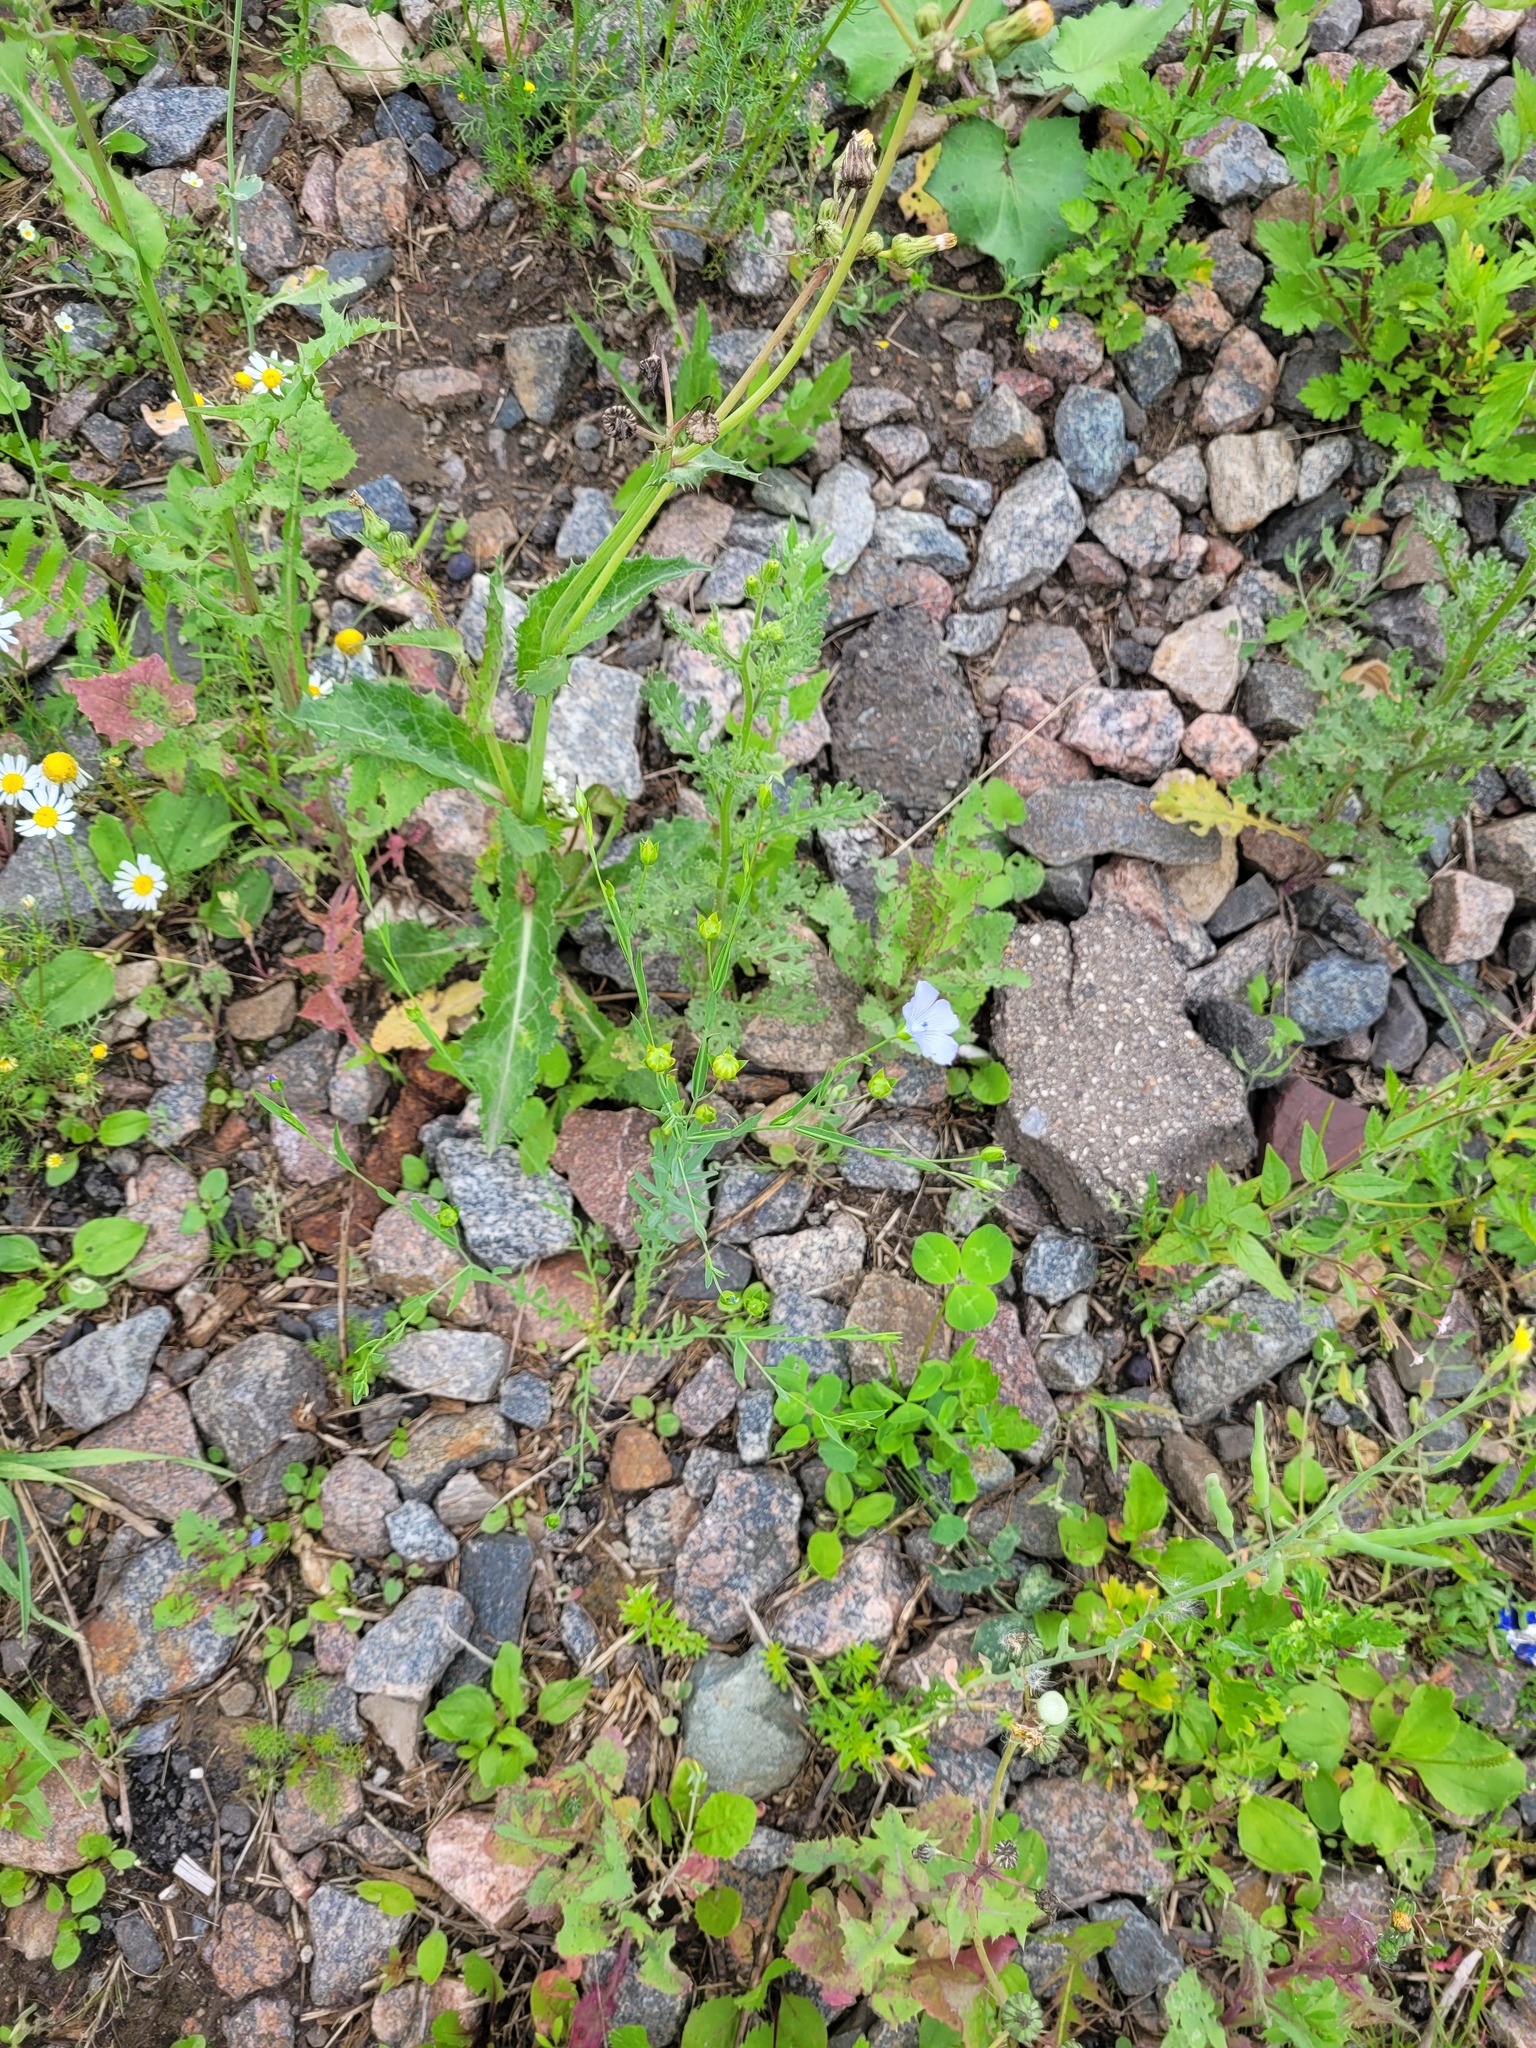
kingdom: Plantae
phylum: Tracheophyta
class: Magnoliopsida
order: Malpighiales
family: Linaceae
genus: Linum
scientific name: Linum usitatissimum
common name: Flax
